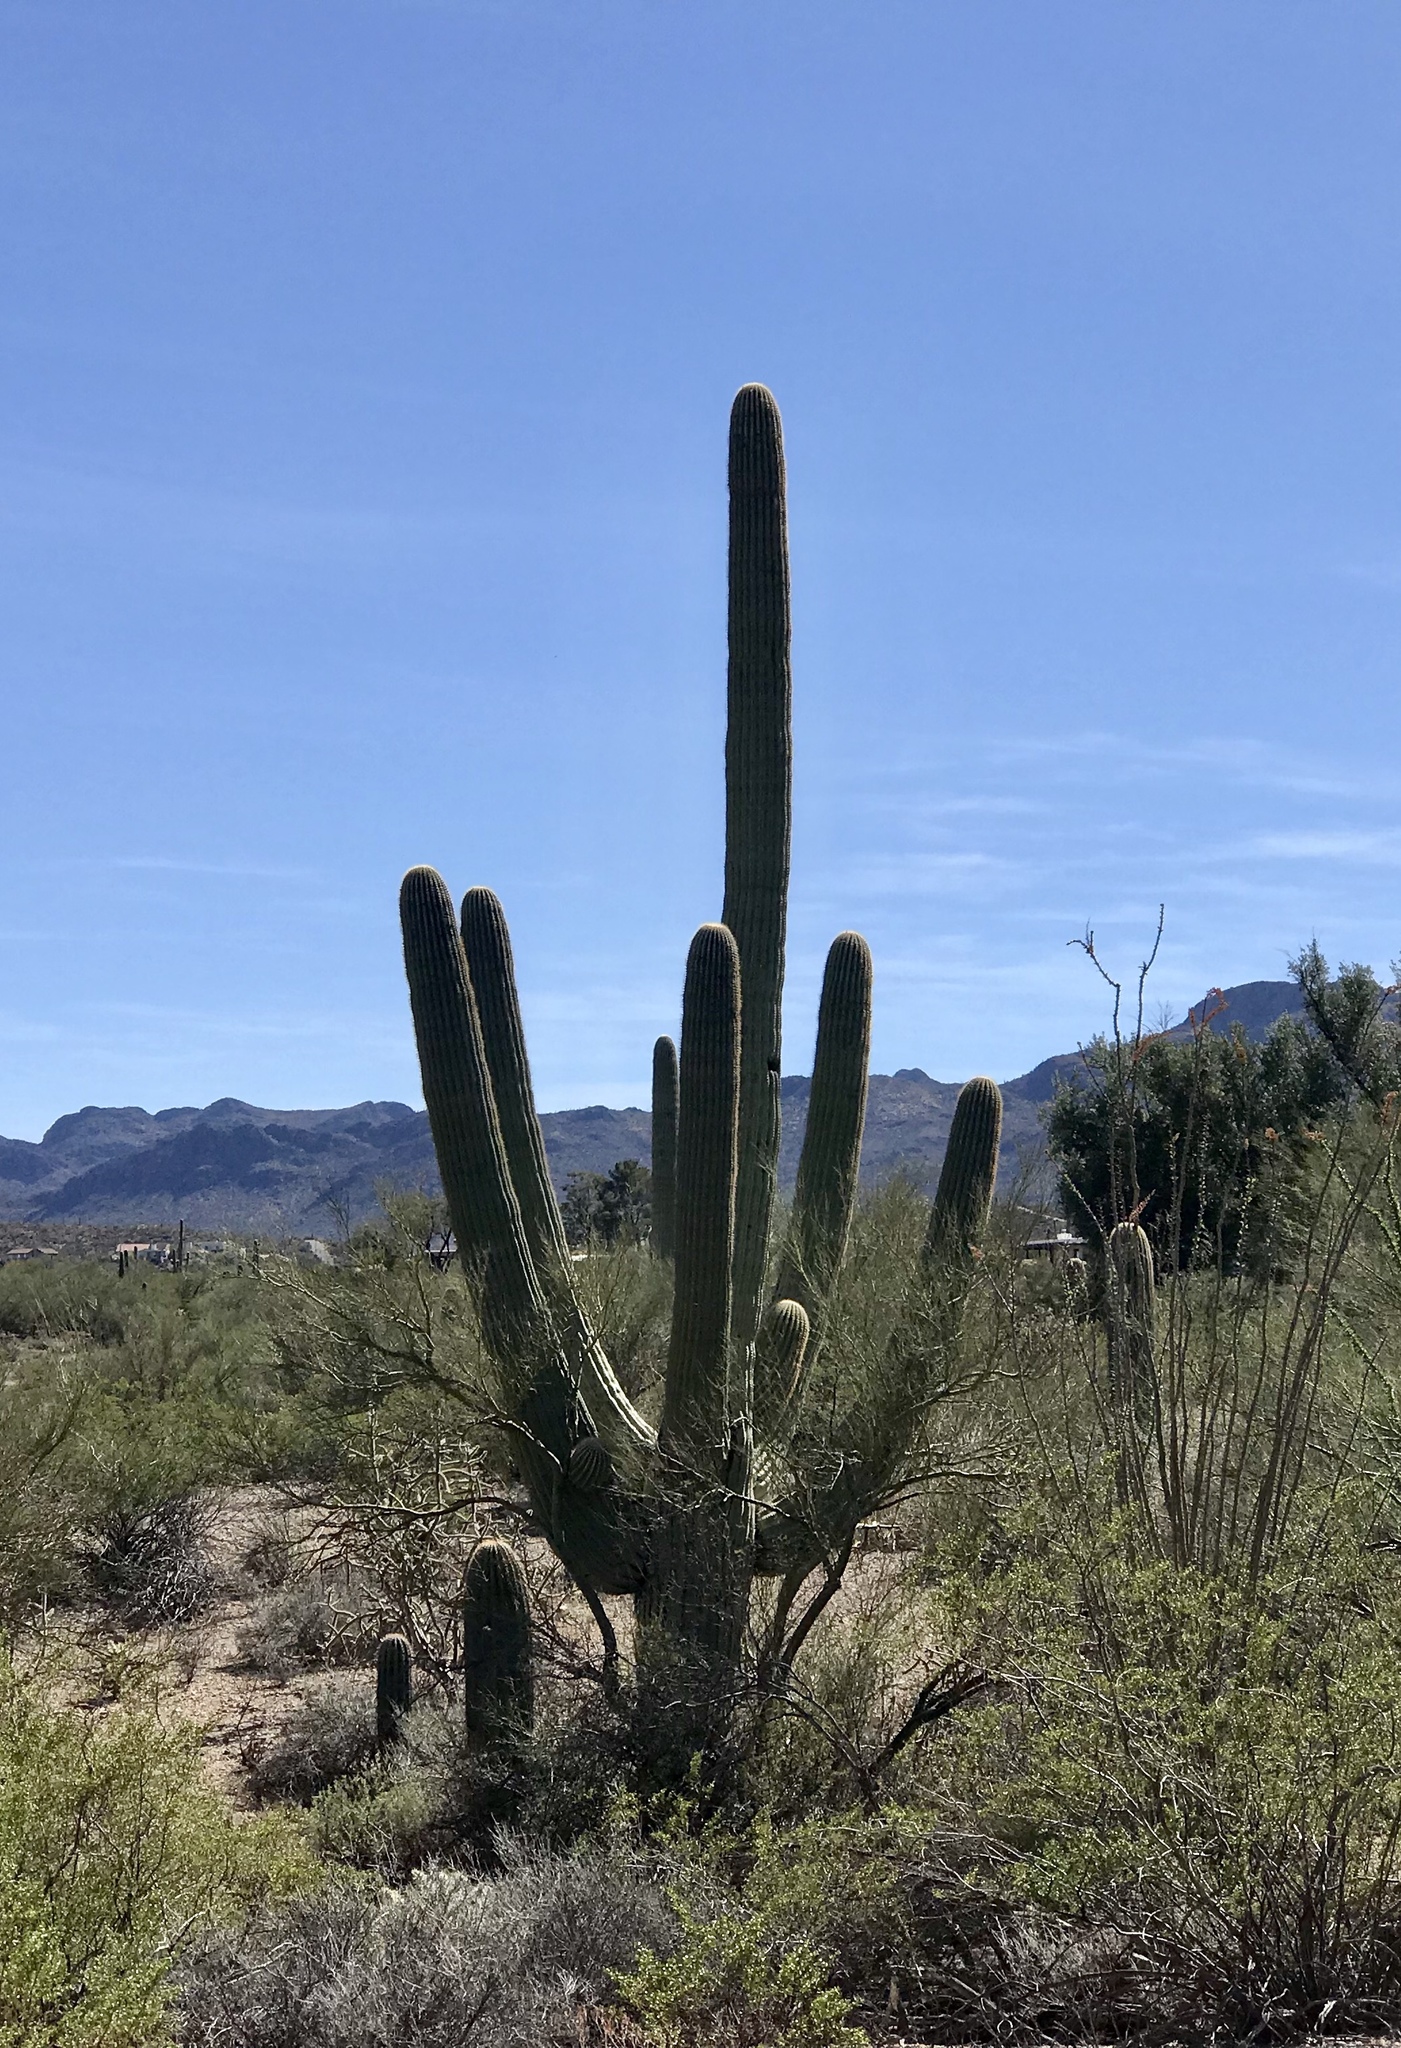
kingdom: Plantae
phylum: Tracheophyta
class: Magnoliopsida
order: Caryophyllales
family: Cactaceae
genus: Carnegiea
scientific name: Carnegiea gigantea
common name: Saguaro
